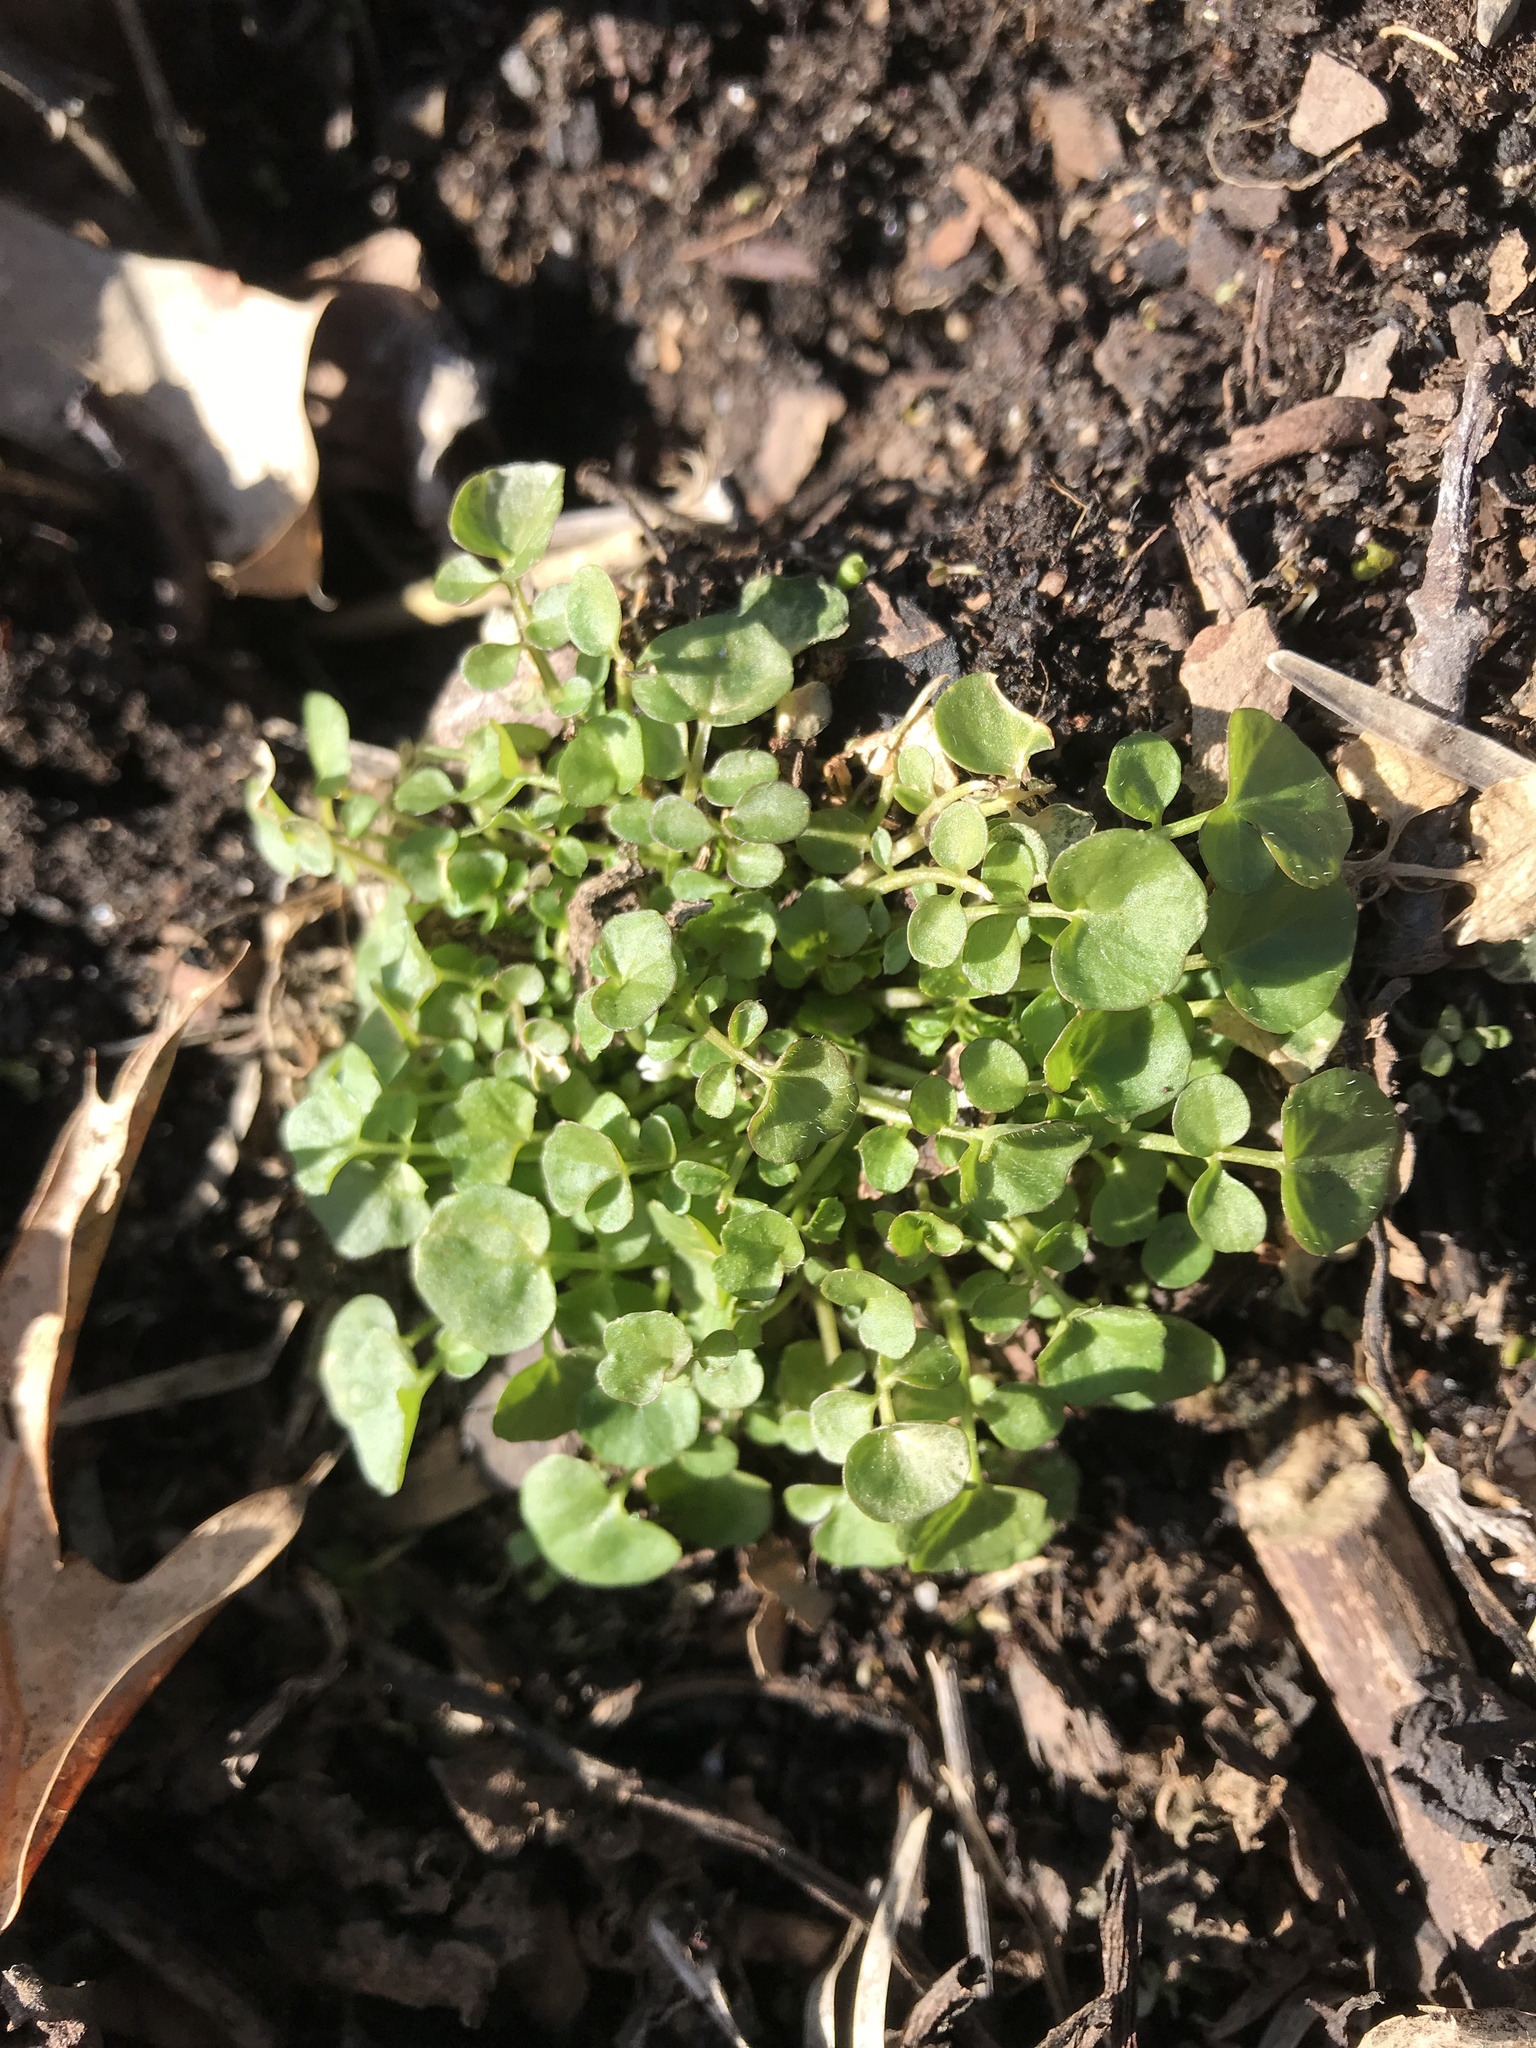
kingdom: Plantae
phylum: Tracheophyta
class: Magnoliopsida
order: Brassicales
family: Brassicaceae
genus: Cardamine
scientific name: Cardamine hirsuta
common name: Hairy bittercress
